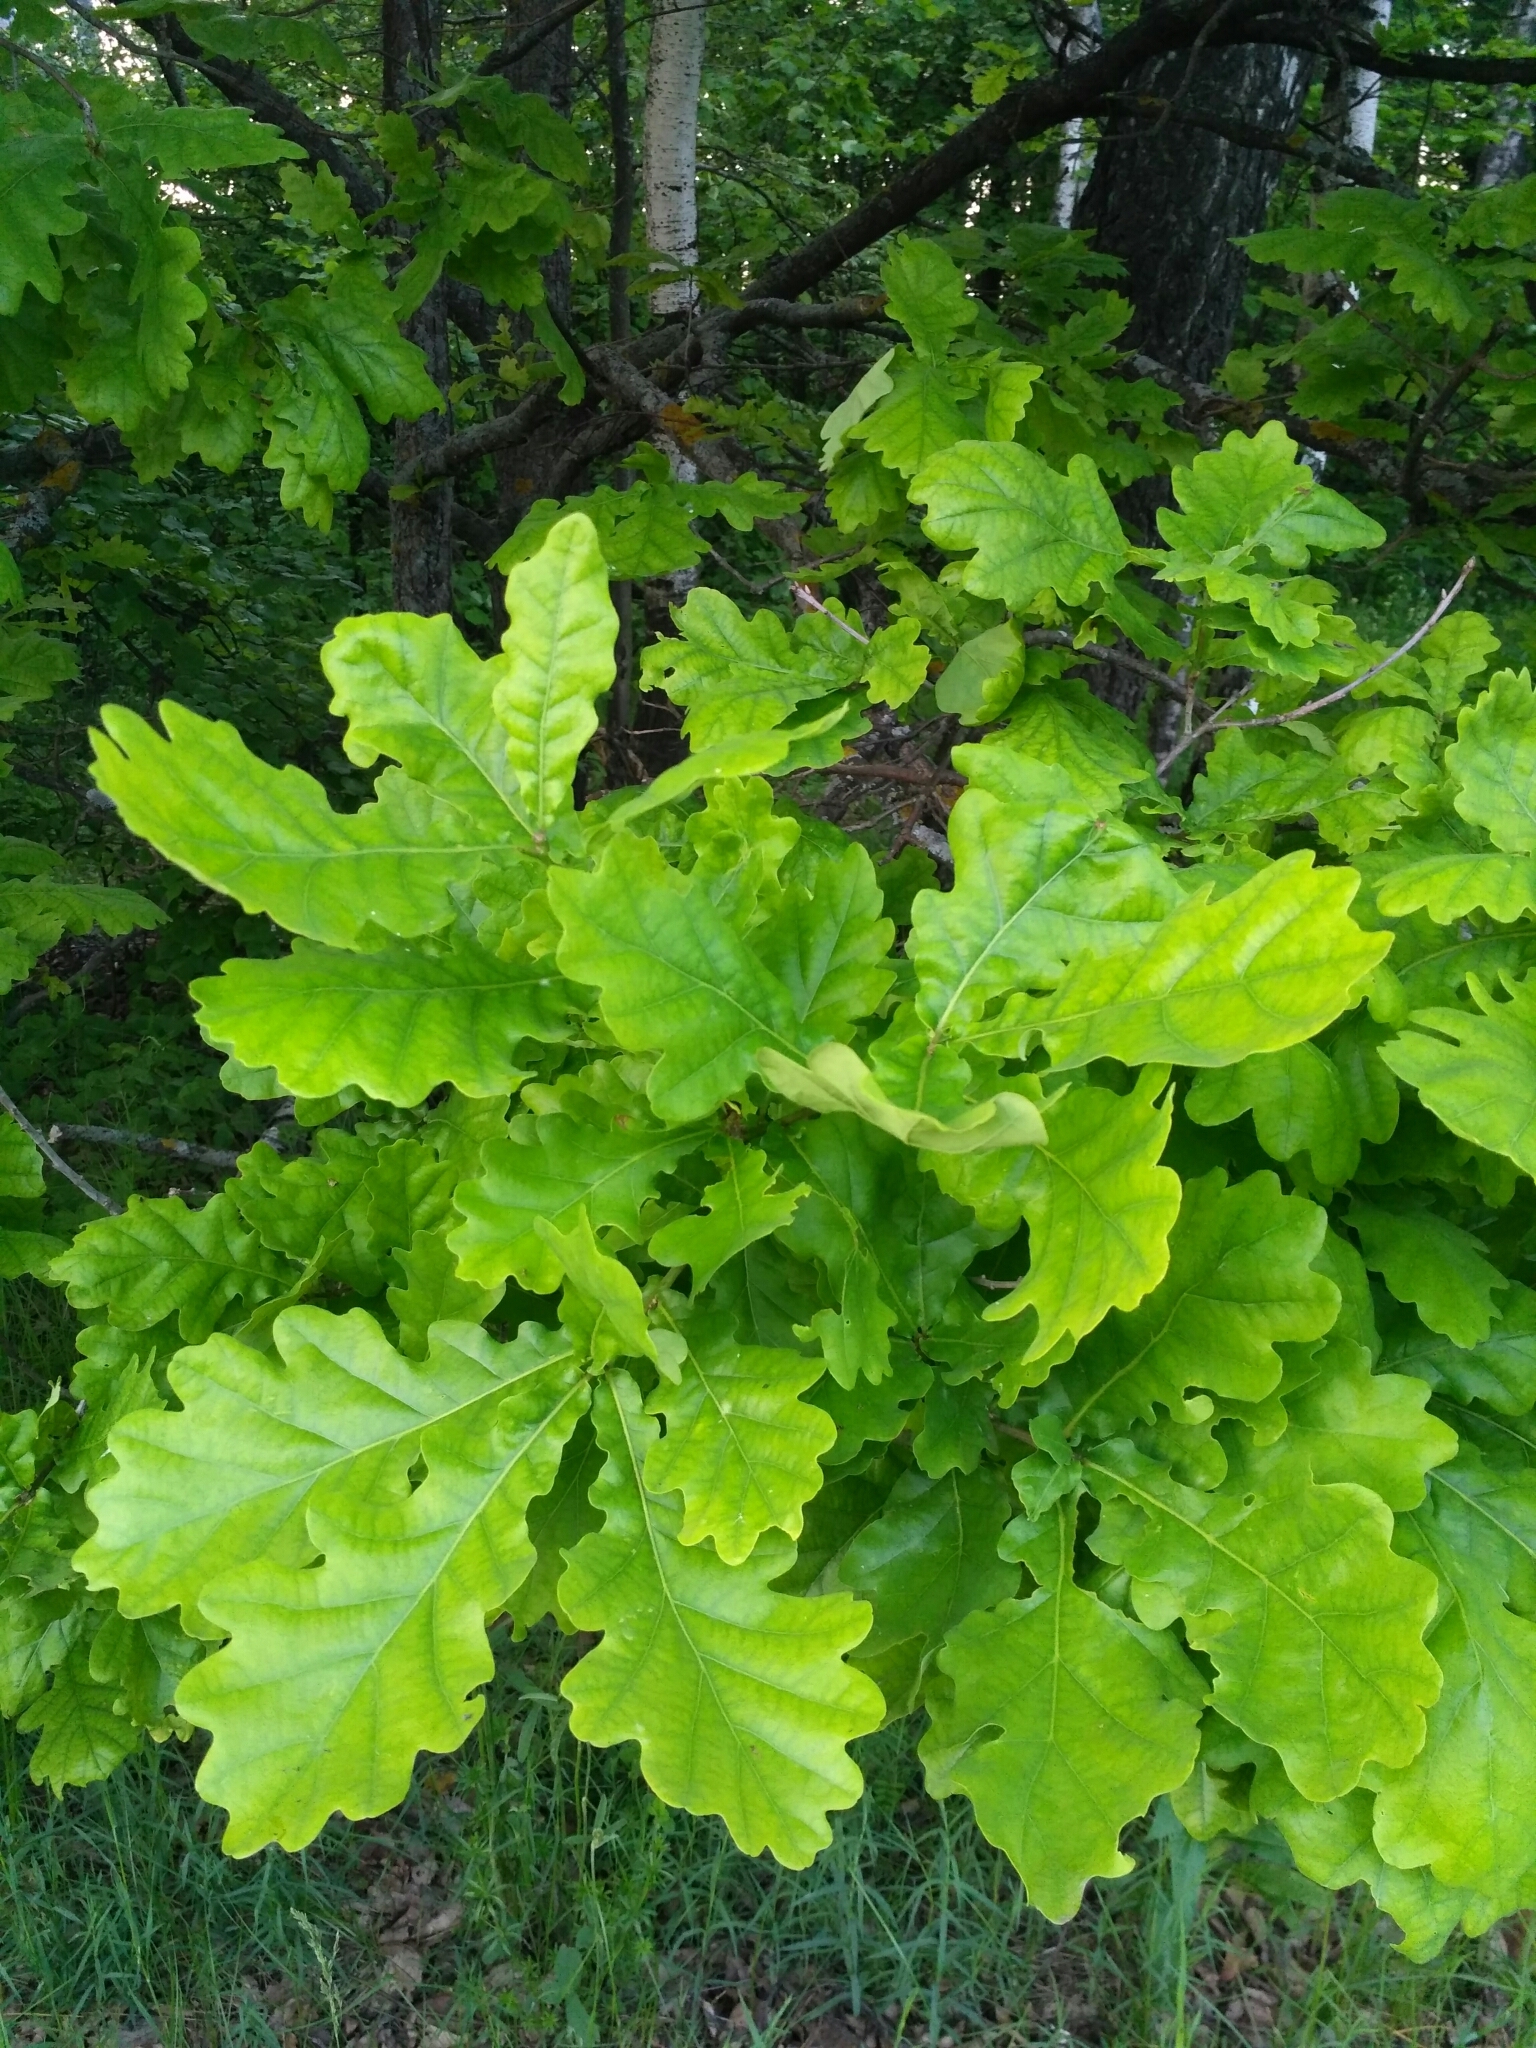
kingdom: Plantae
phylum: Tracheophyta
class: Magnoliopsida
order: Fagales
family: Fagaceae
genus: Quercus
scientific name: Quercus robur
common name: Pedunculate oak
